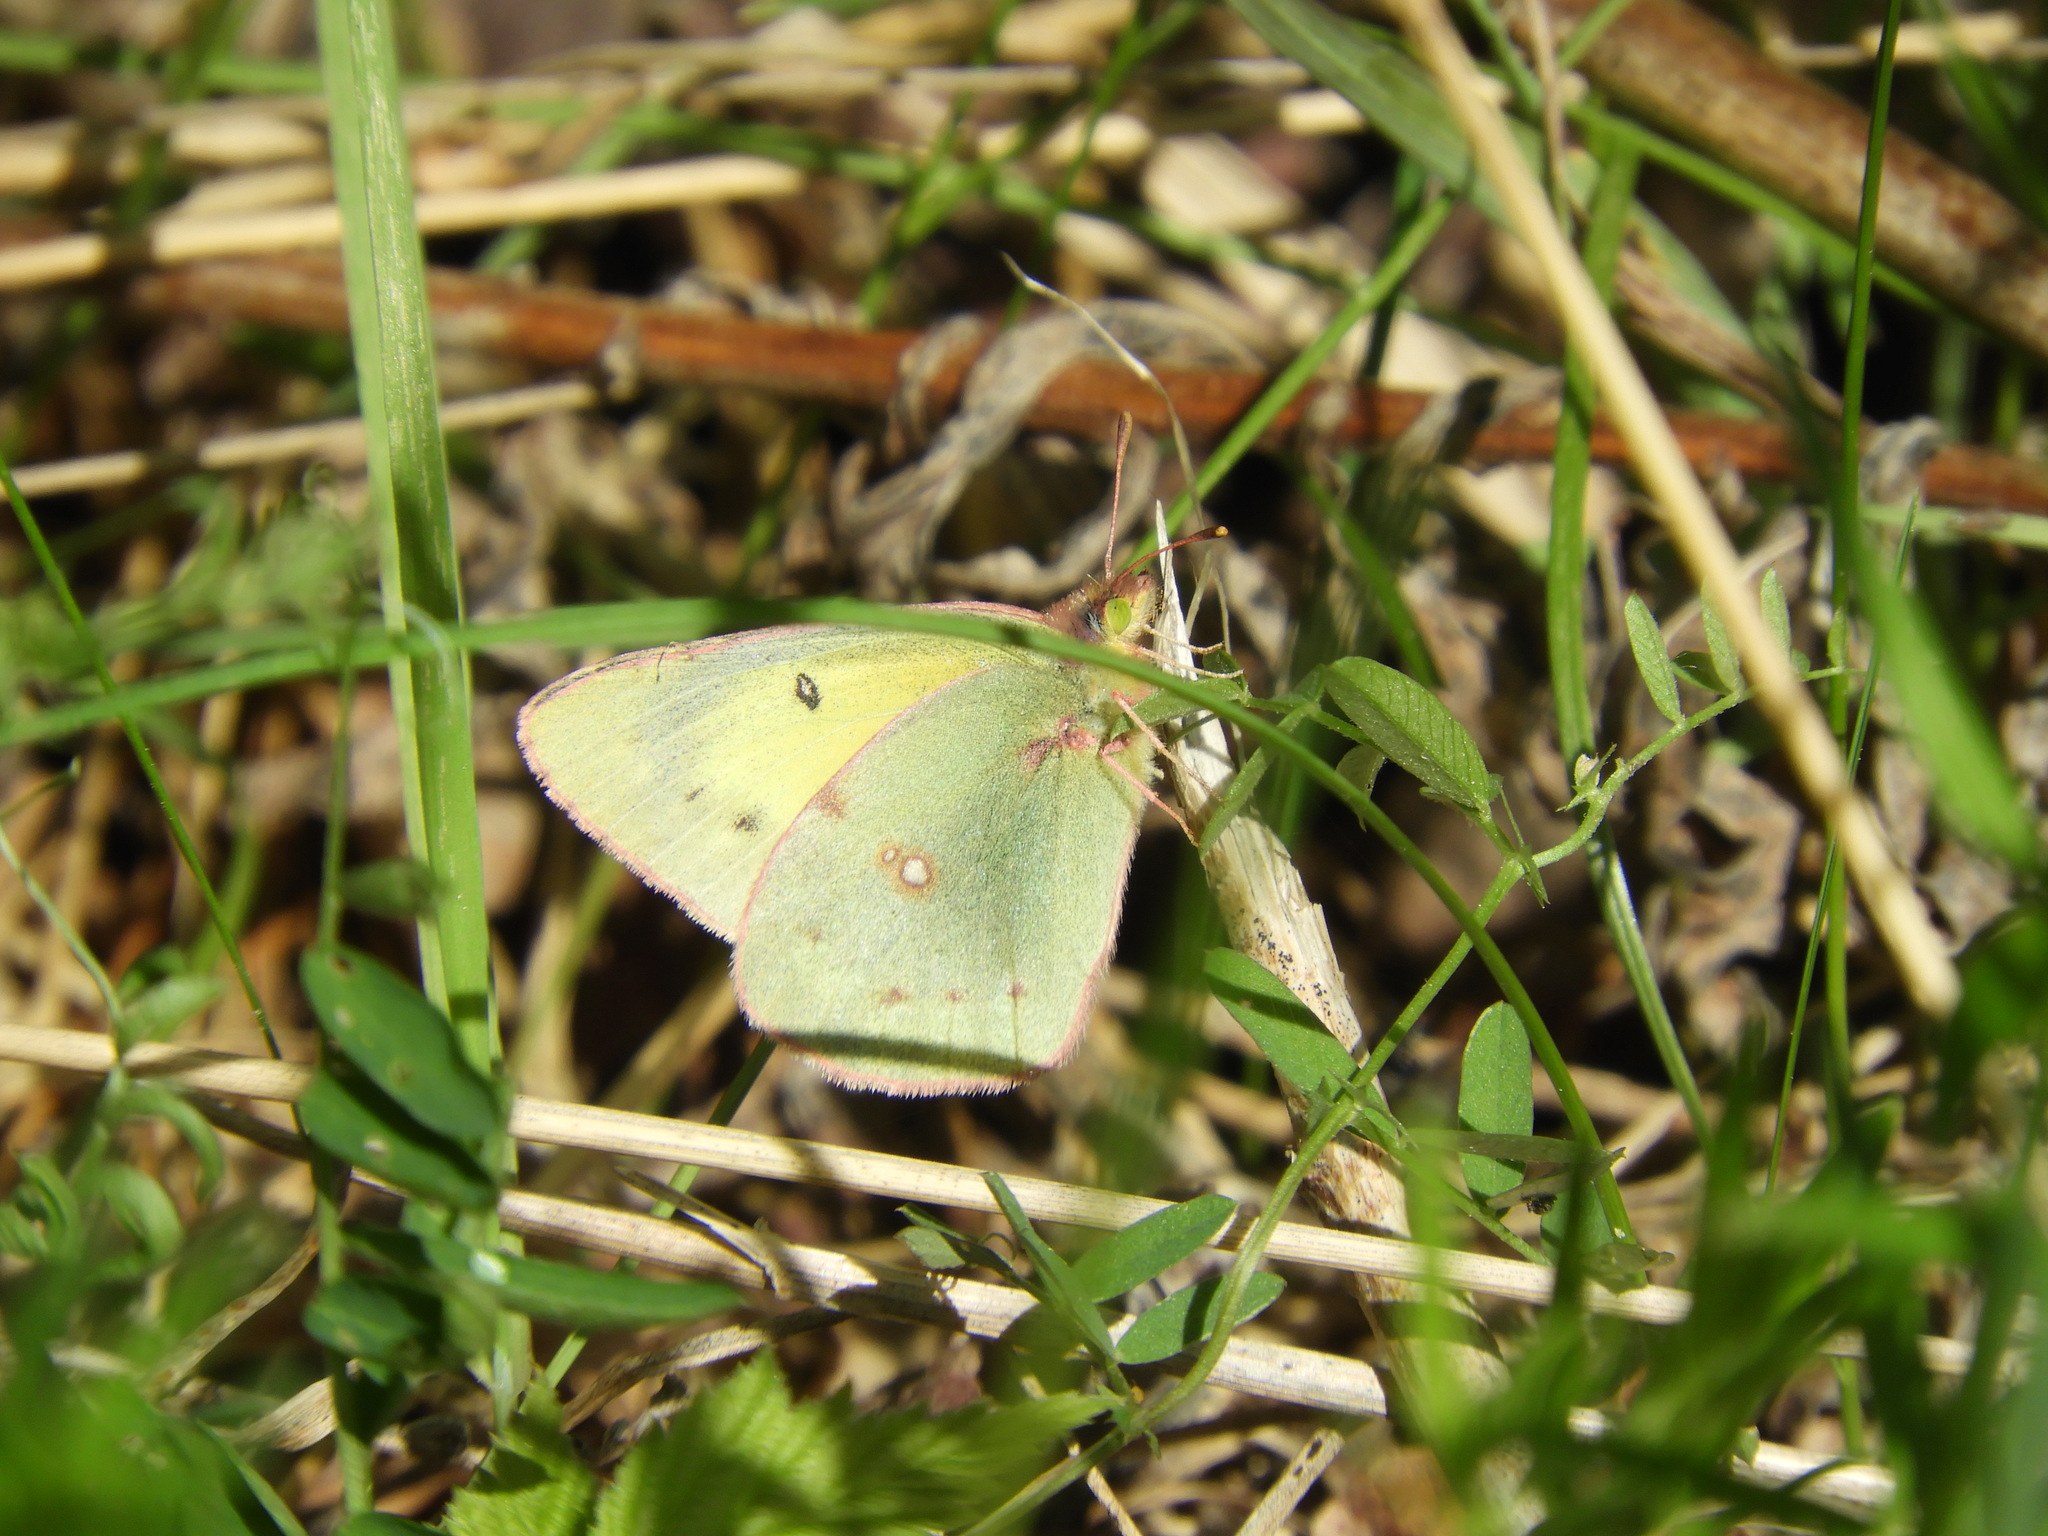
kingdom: Animalia
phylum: Arthropoda
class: Insecta
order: Lepidoptera
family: Pieridae
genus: Colias
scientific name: Colias philodice
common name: Clouded sulphur
